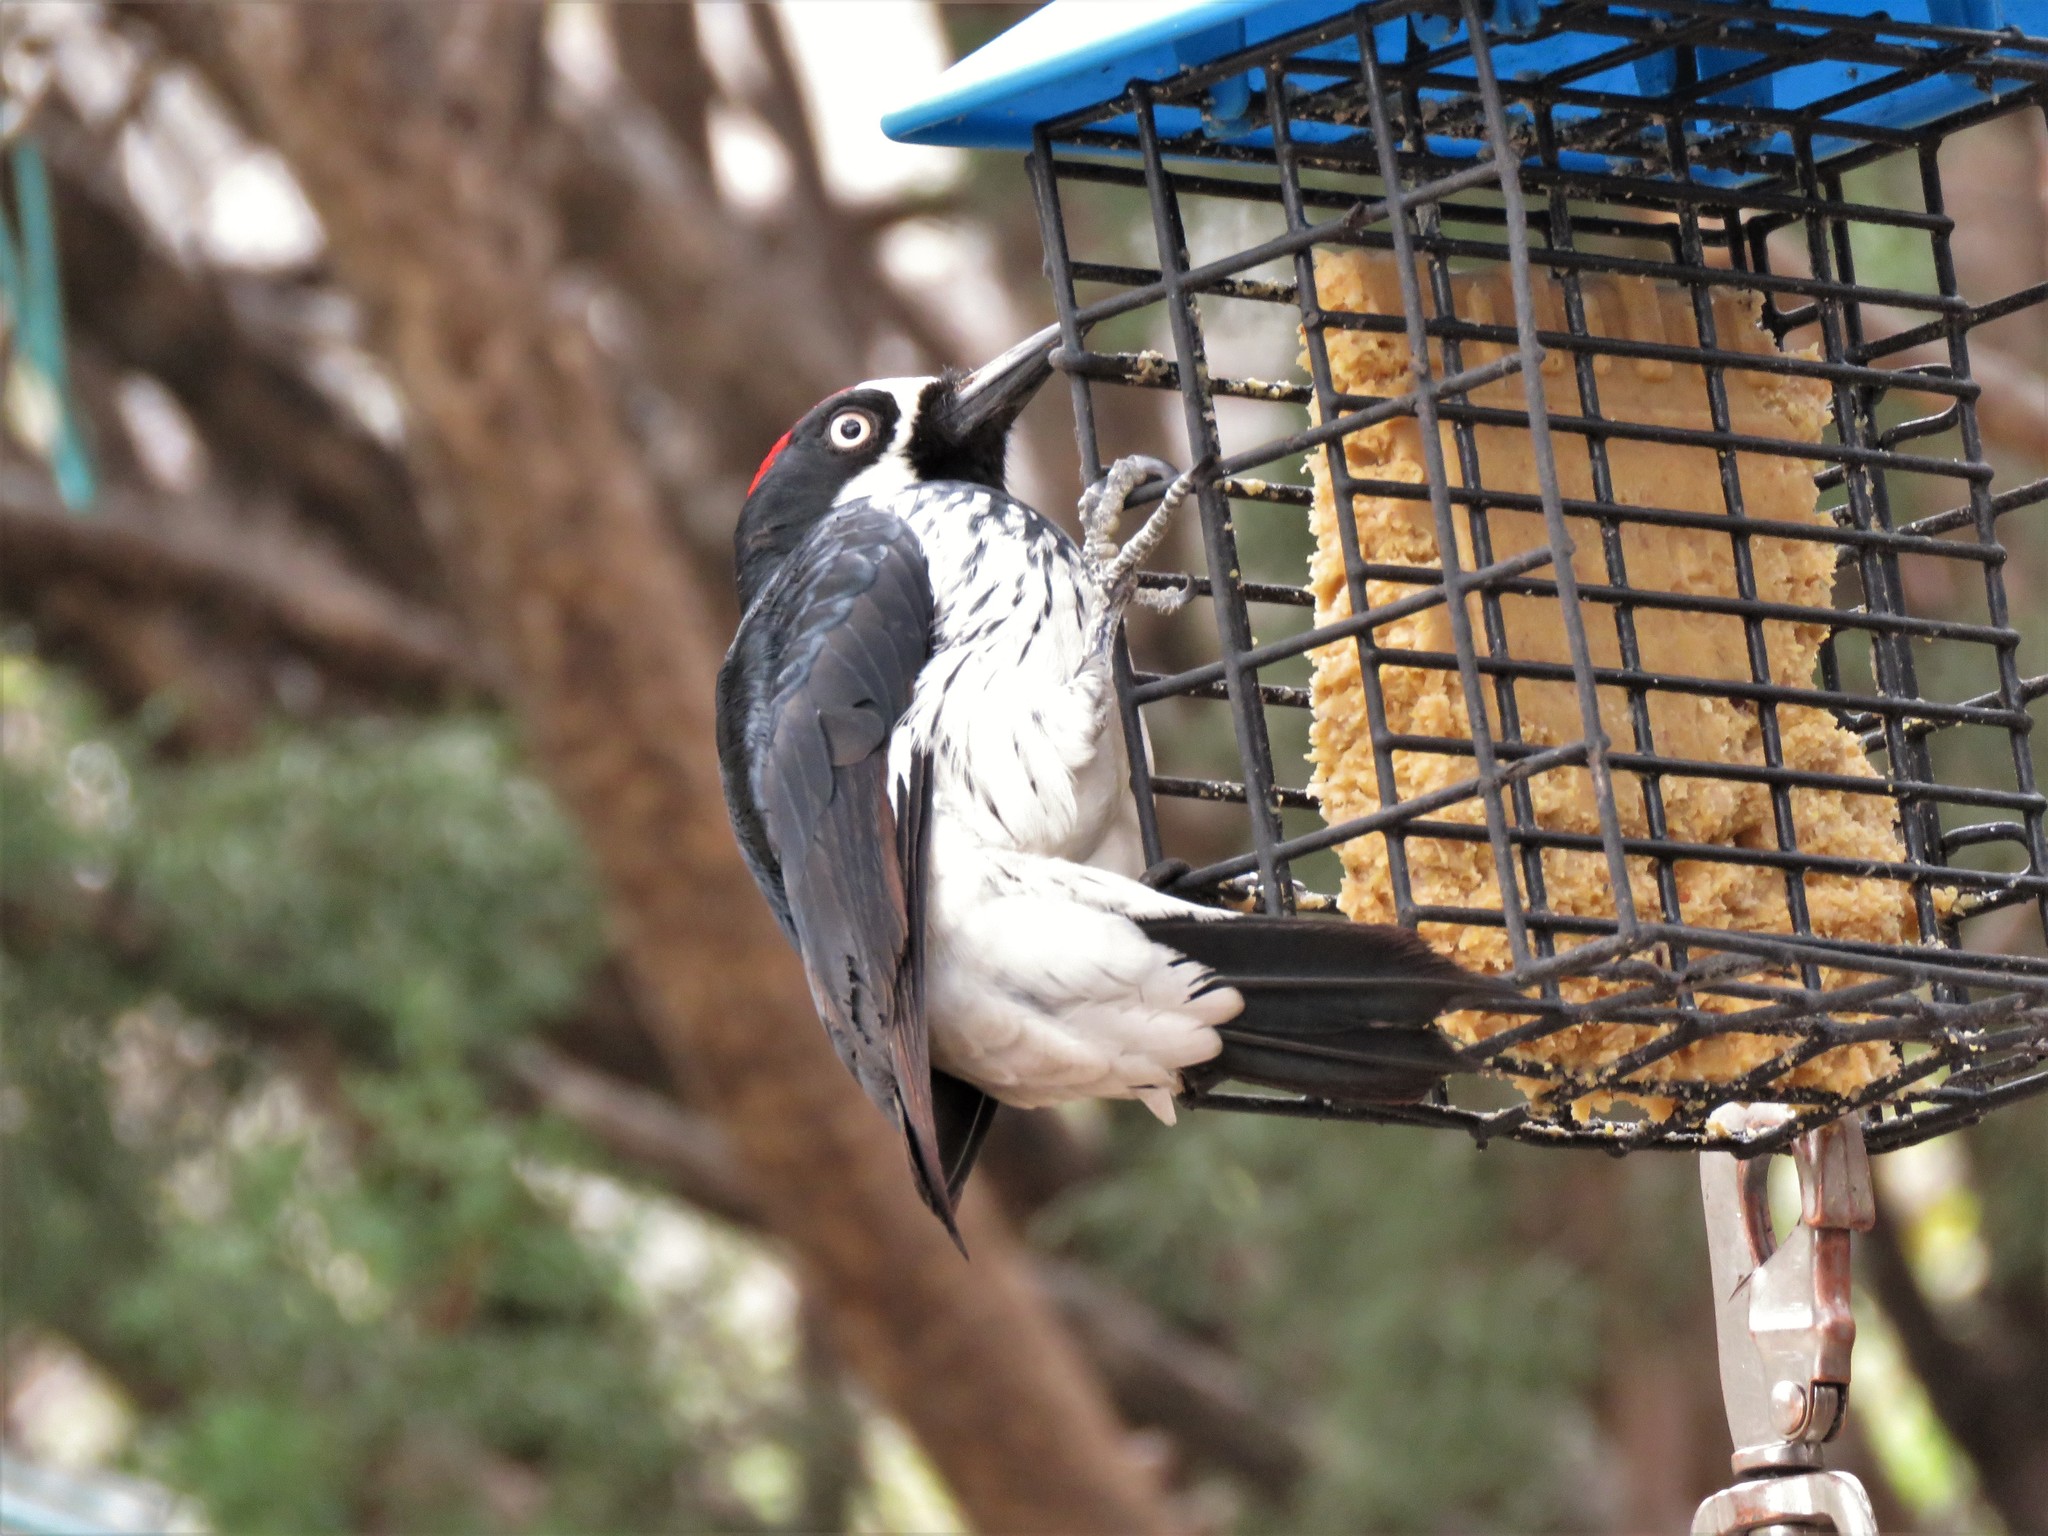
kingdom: Animalia
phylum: Chordata
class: Aves
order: Piciformes
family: Picidae
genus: Melanerpes
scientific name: Melanerpes formicivorus
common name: Acorn woodpecker
